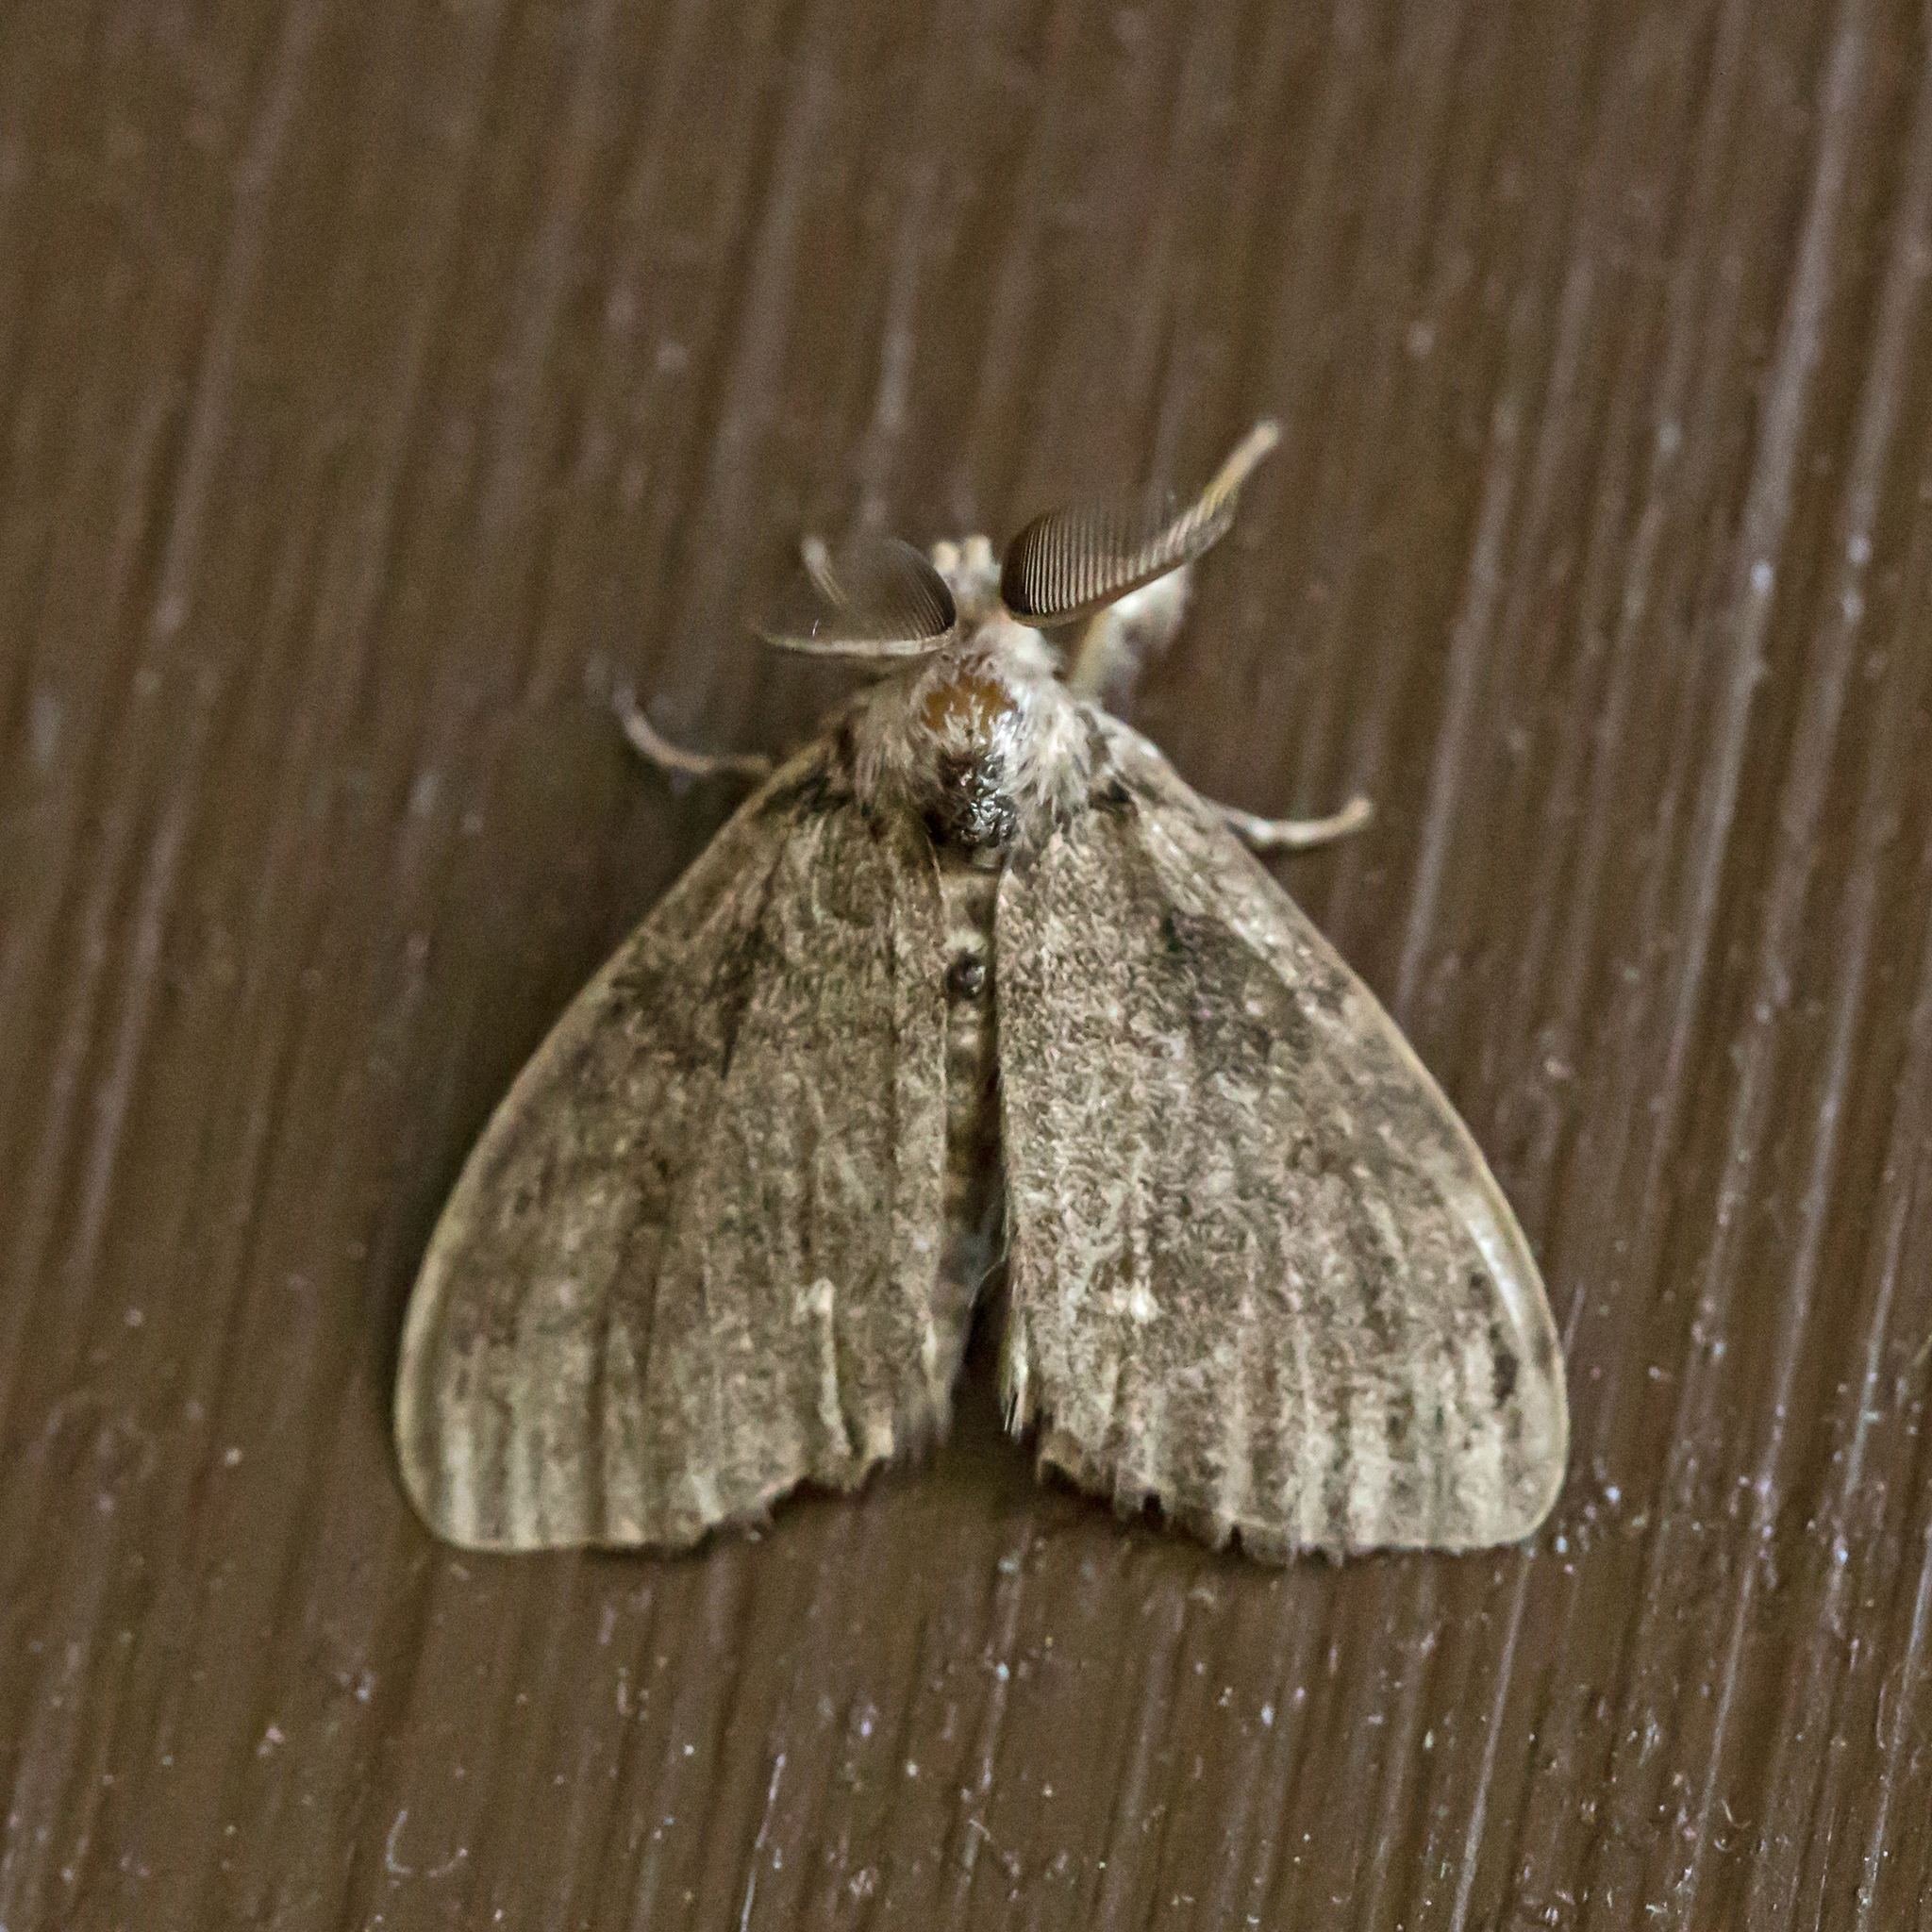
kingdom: Animalia
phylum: Arthropoda
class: Insecta
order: Lepidoptera
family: Erebidae
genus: Orgyia
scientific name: Orgyia leucostigma
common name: White-marked tussock moth
